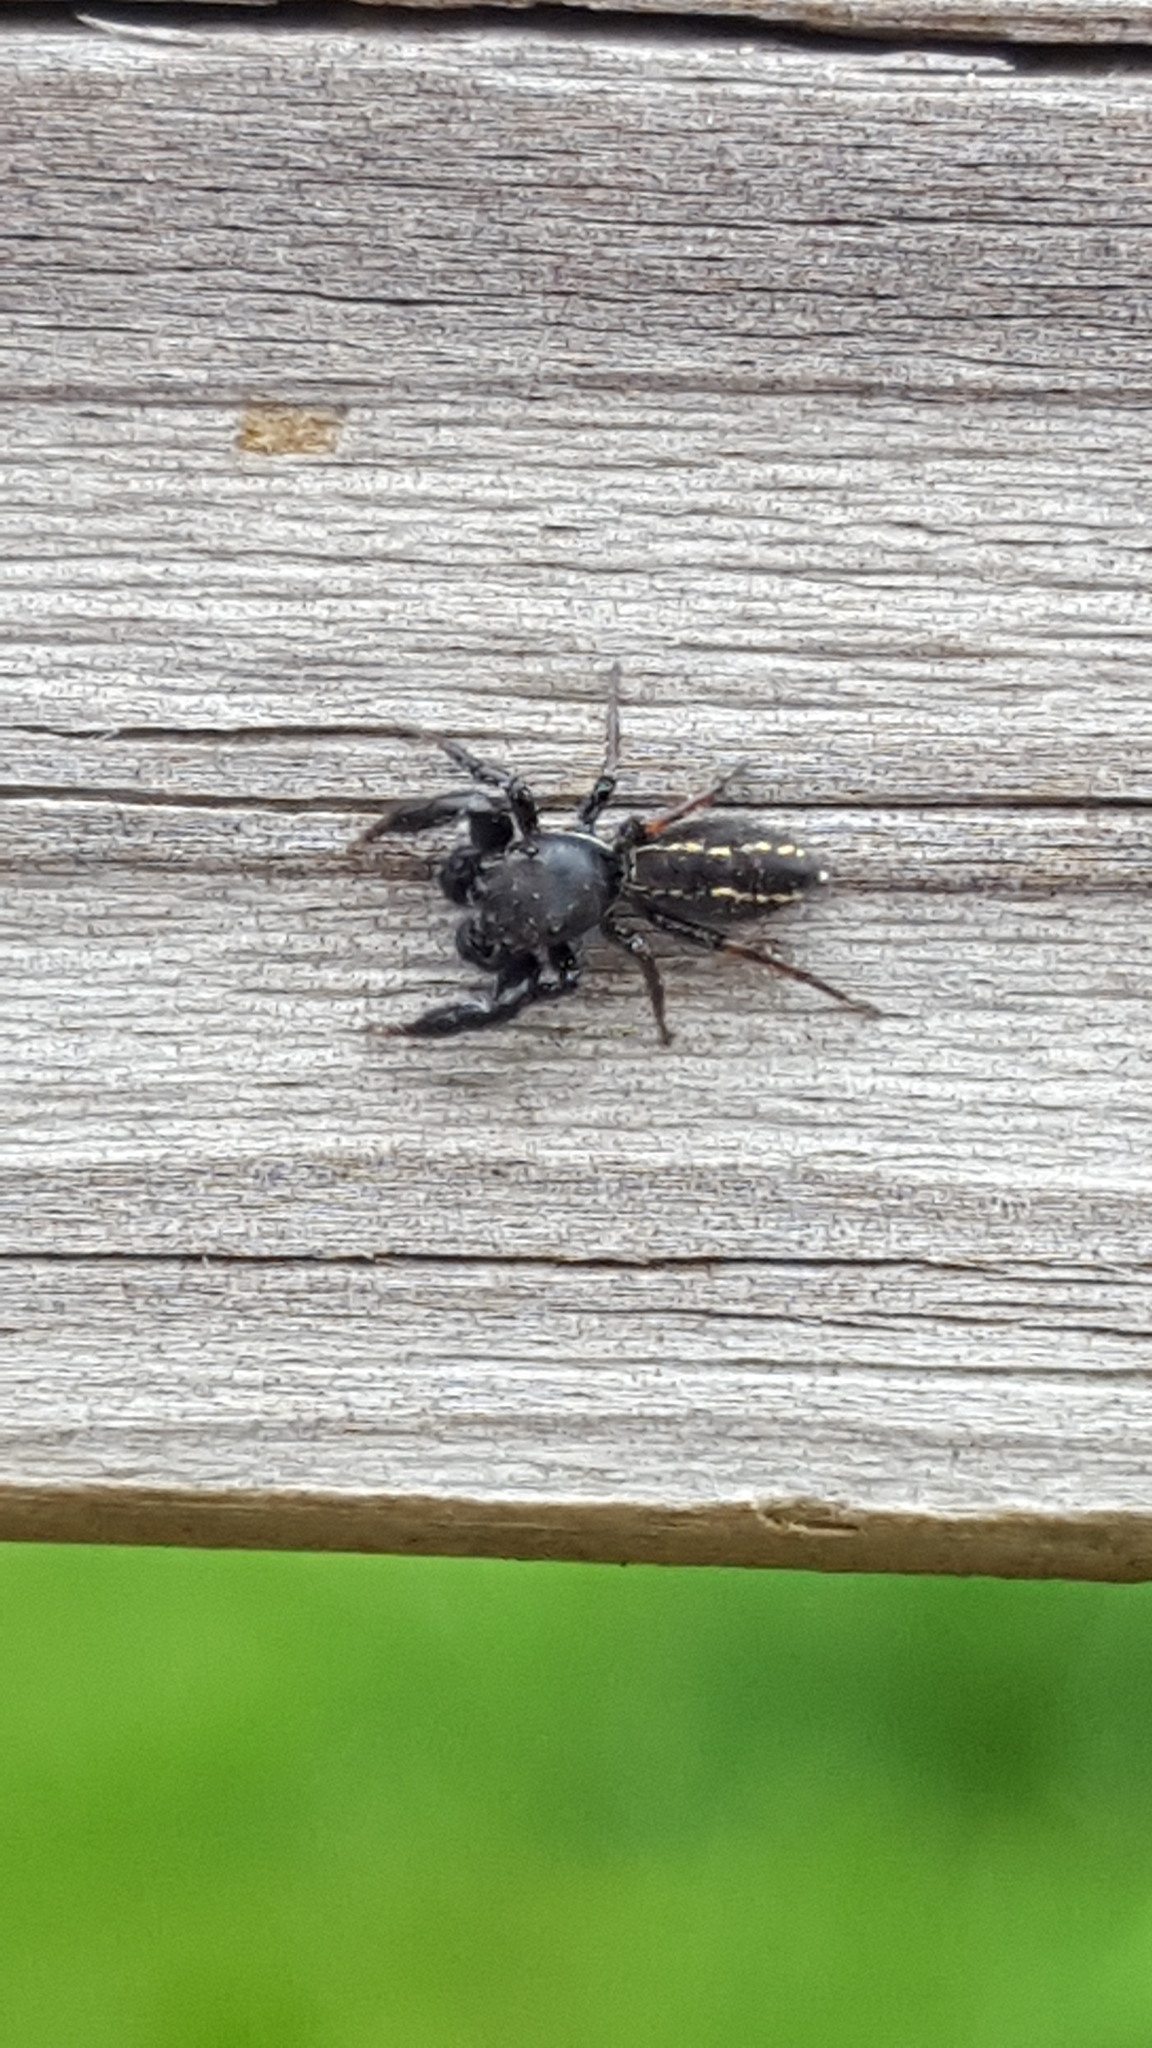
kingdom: Animalia
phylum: Arthropoda
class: Arachnida
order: Araneae
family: Salticidae
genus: Metacyrba
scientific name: Metacyrba taeniola
